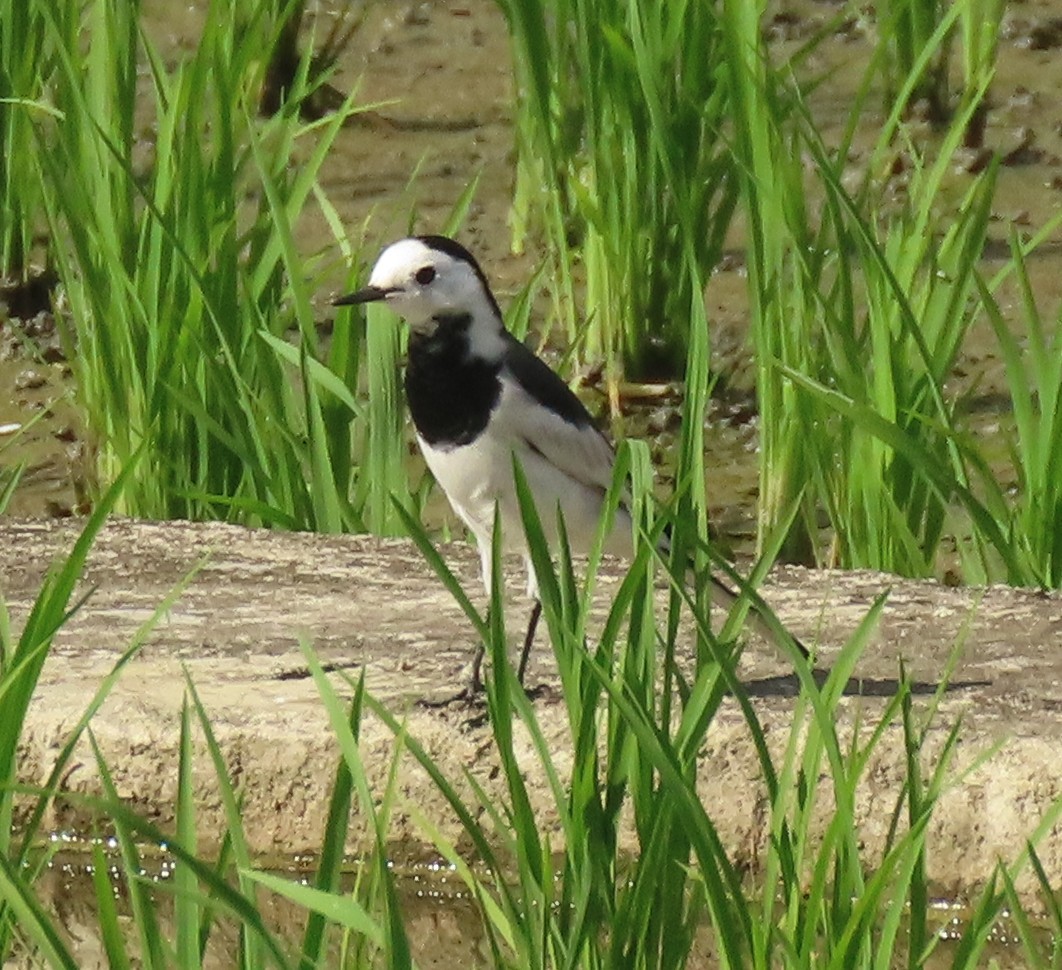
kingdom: Animalia
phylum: Chordata
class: Aves
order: Passeriformes
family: Motacillidae
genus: Motacilla
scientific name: Motacilla alba
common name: White wagtail
